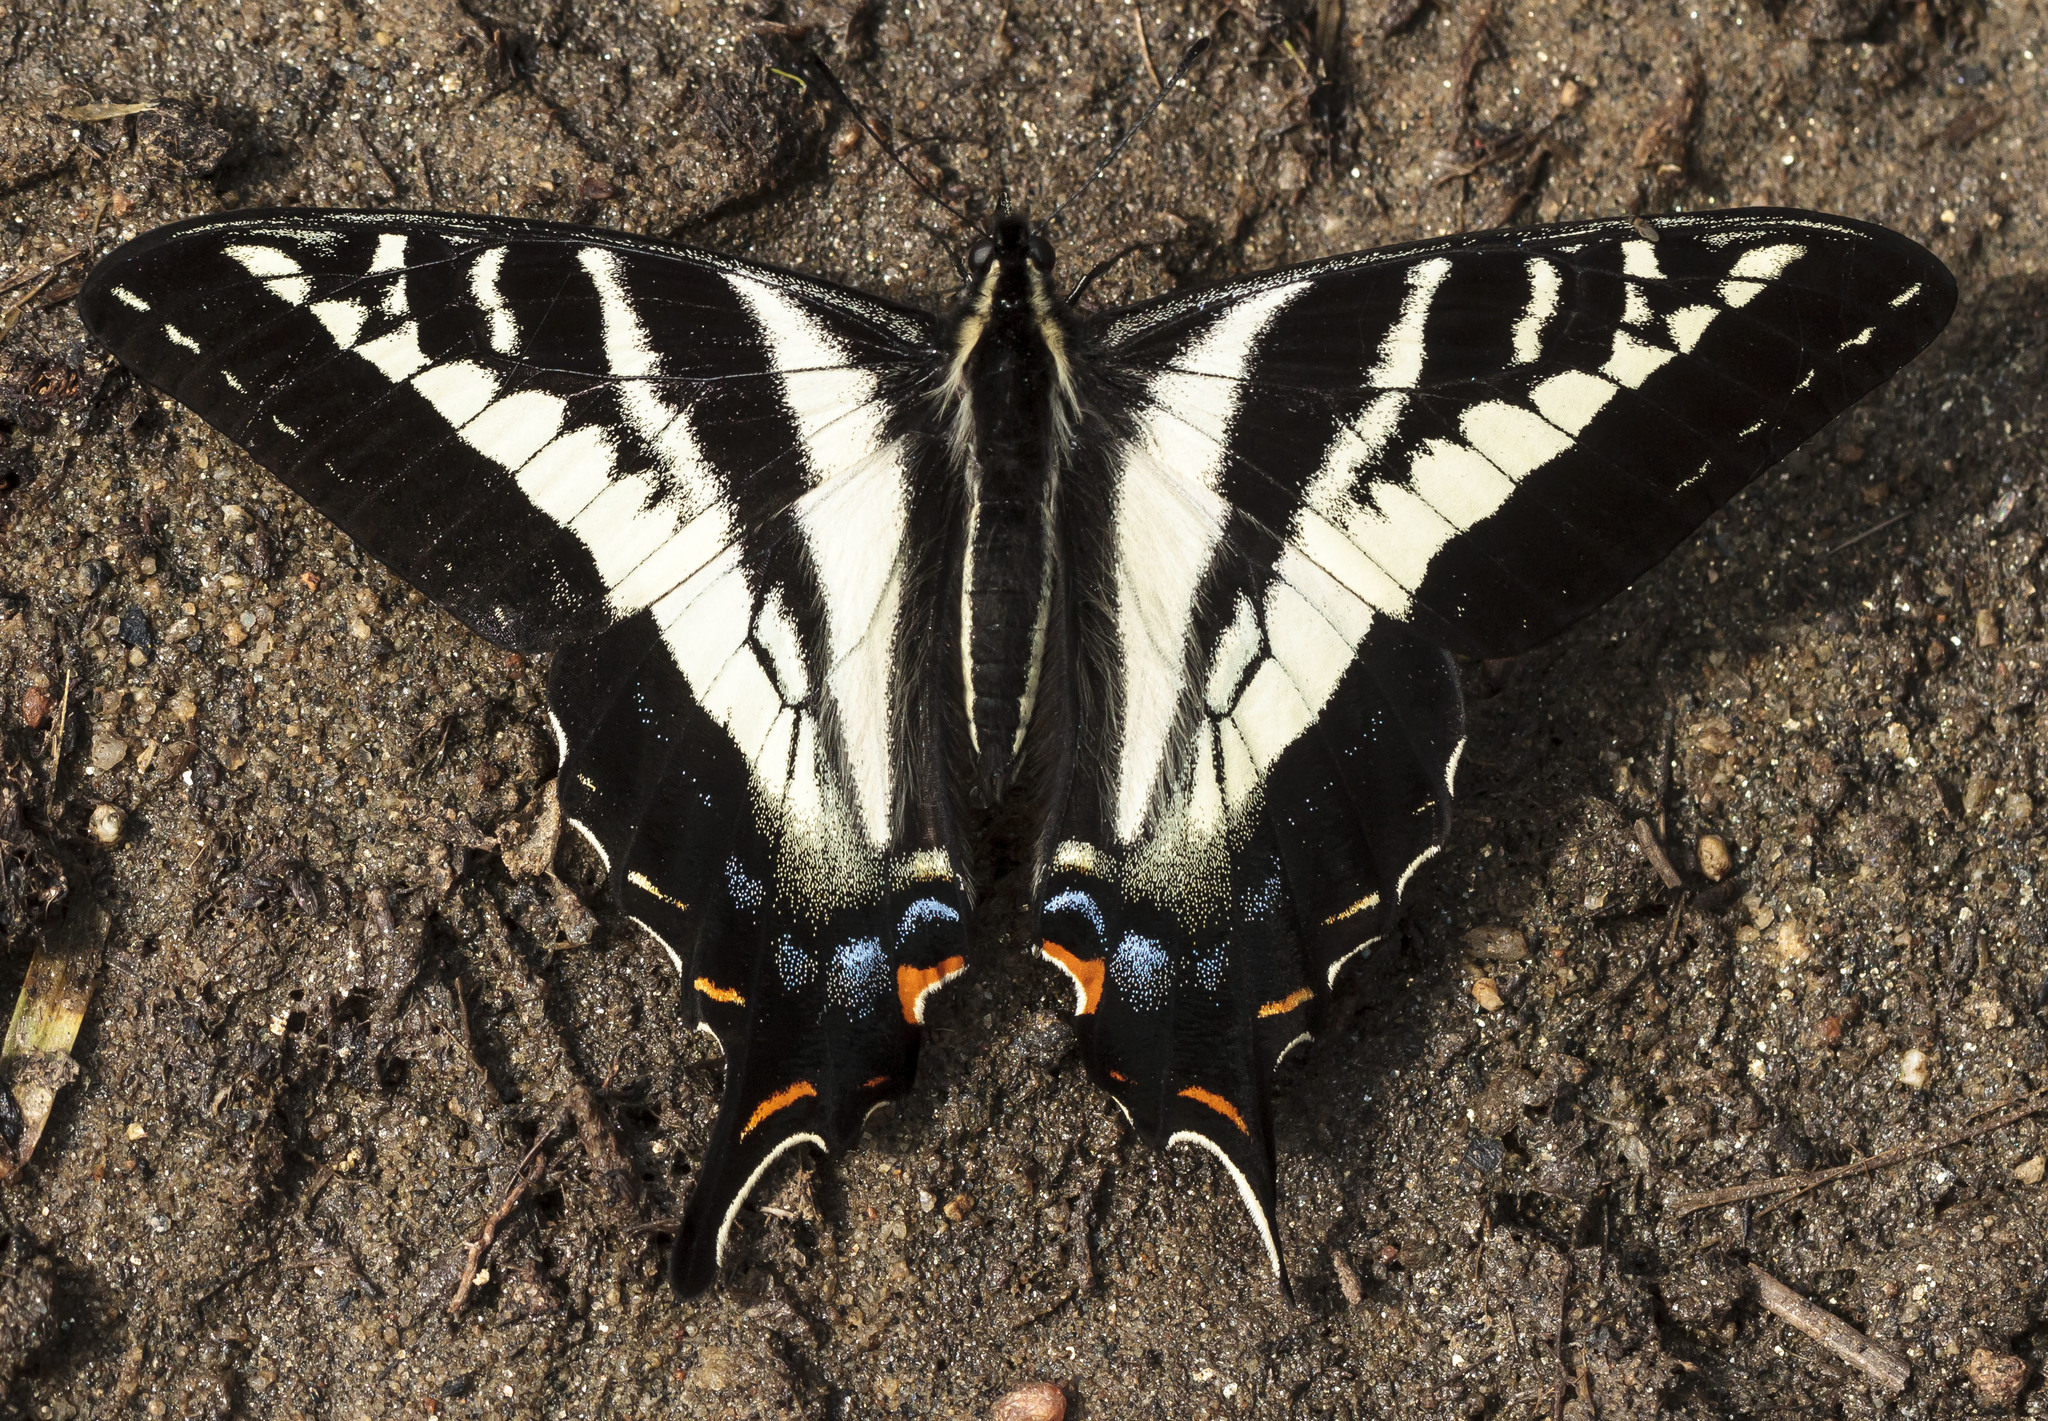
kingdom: Animalia
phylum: Arthropoda
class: Insecta
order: Lepidoptera
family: Papilionidae
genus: Papilio
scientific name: Papilio eurymedon
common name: Pale tiger swallowtail
